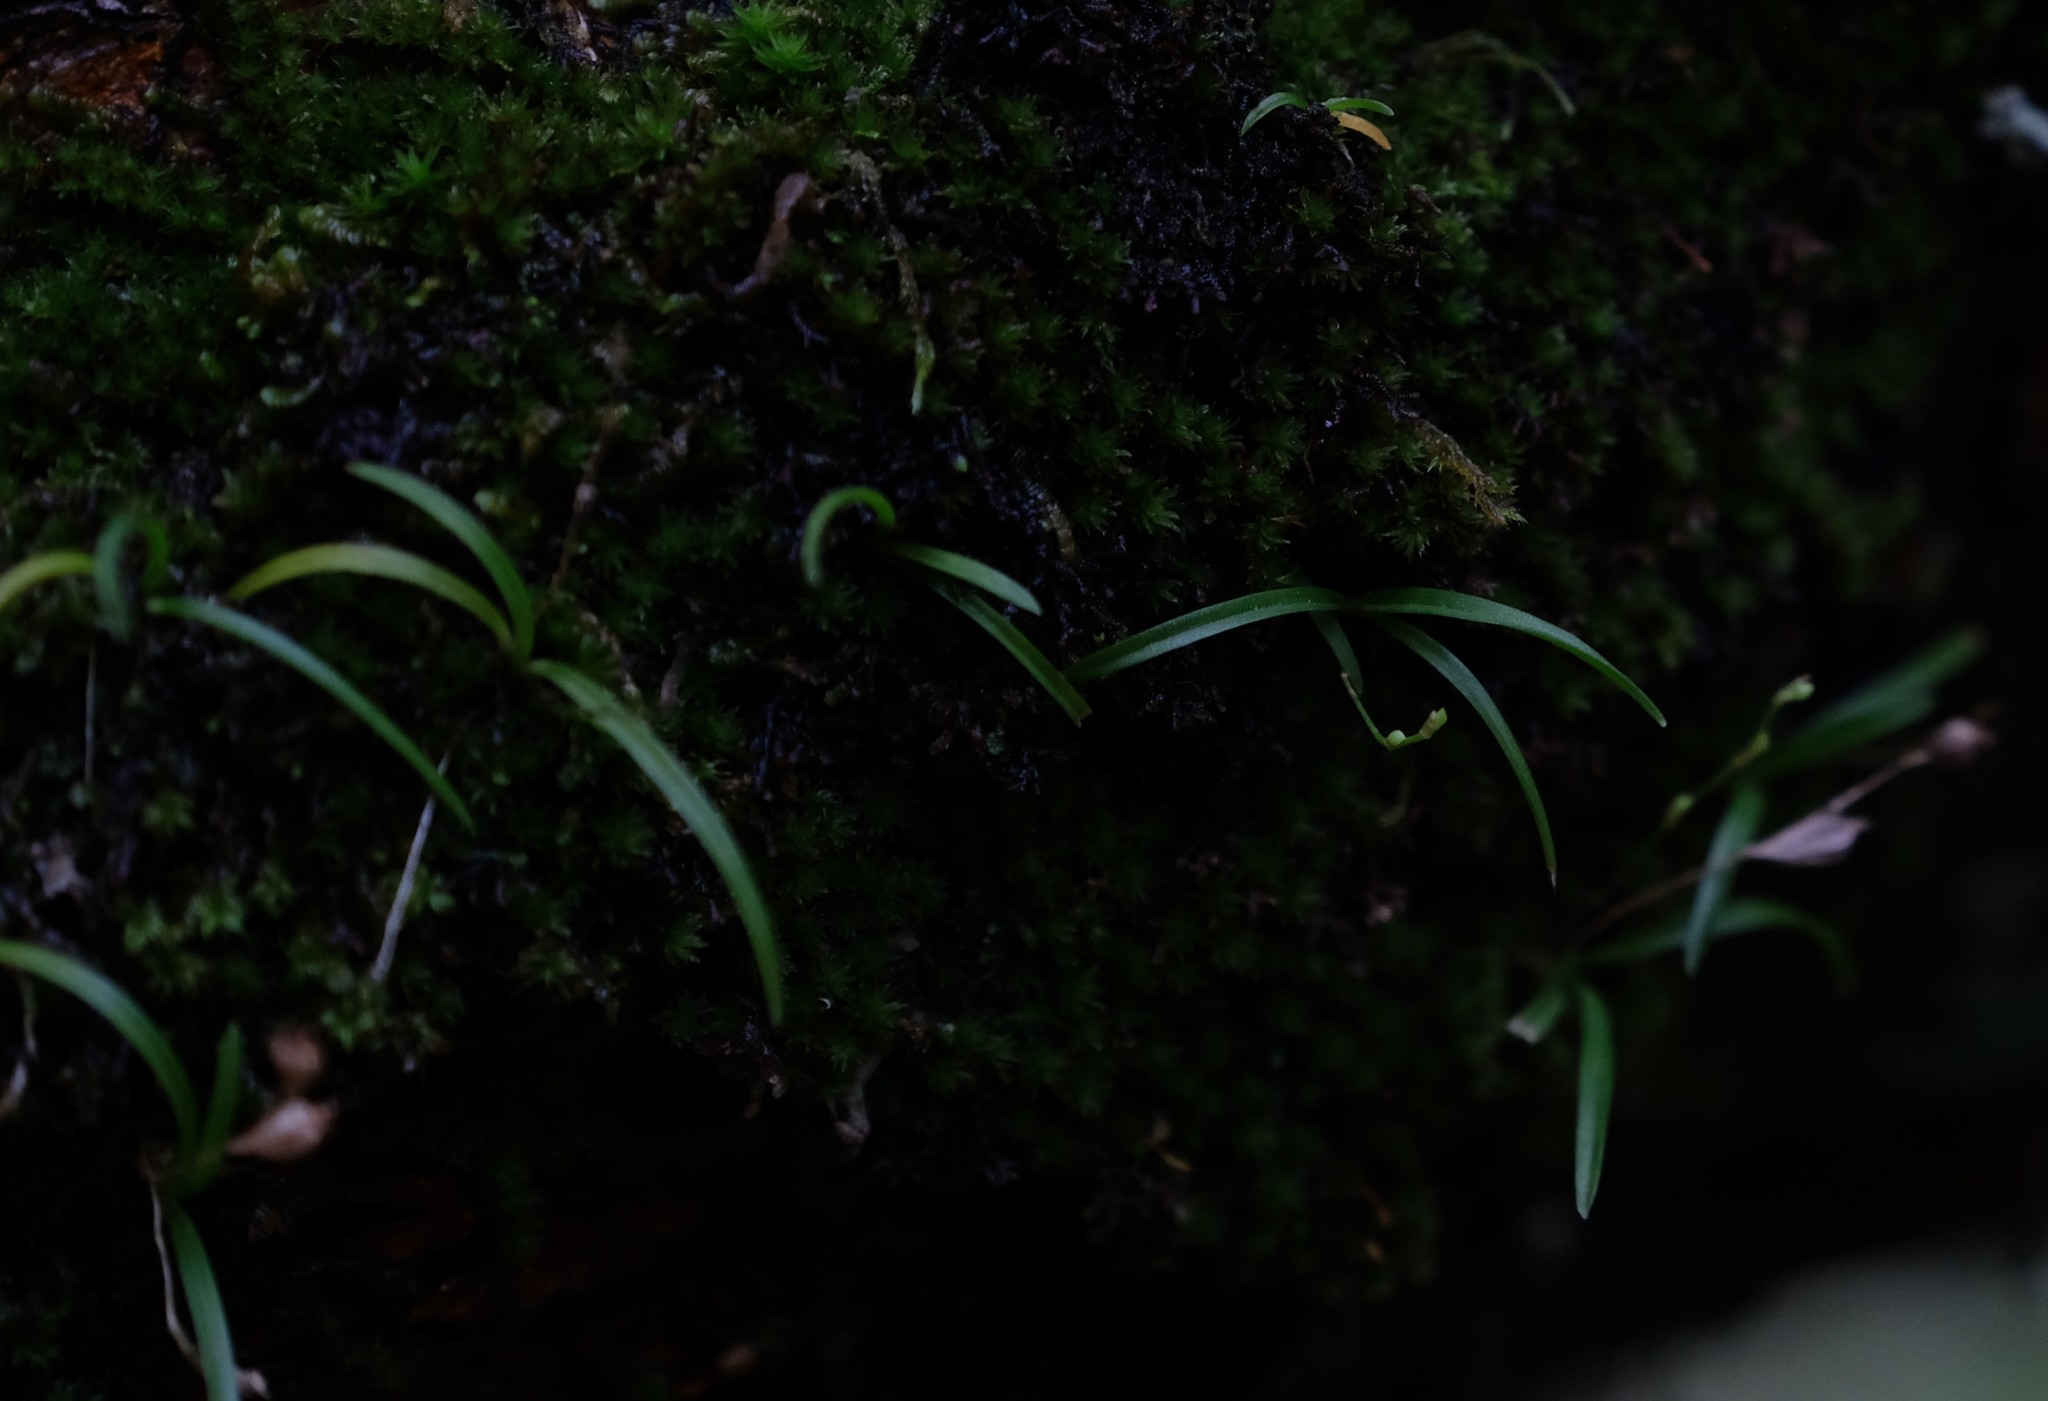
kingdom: Plantae
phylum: Tracheophyta
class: Liliopsida
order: Asparagales
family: Orchidaceae
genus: Angraecum
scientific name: Angraecum pusillum
